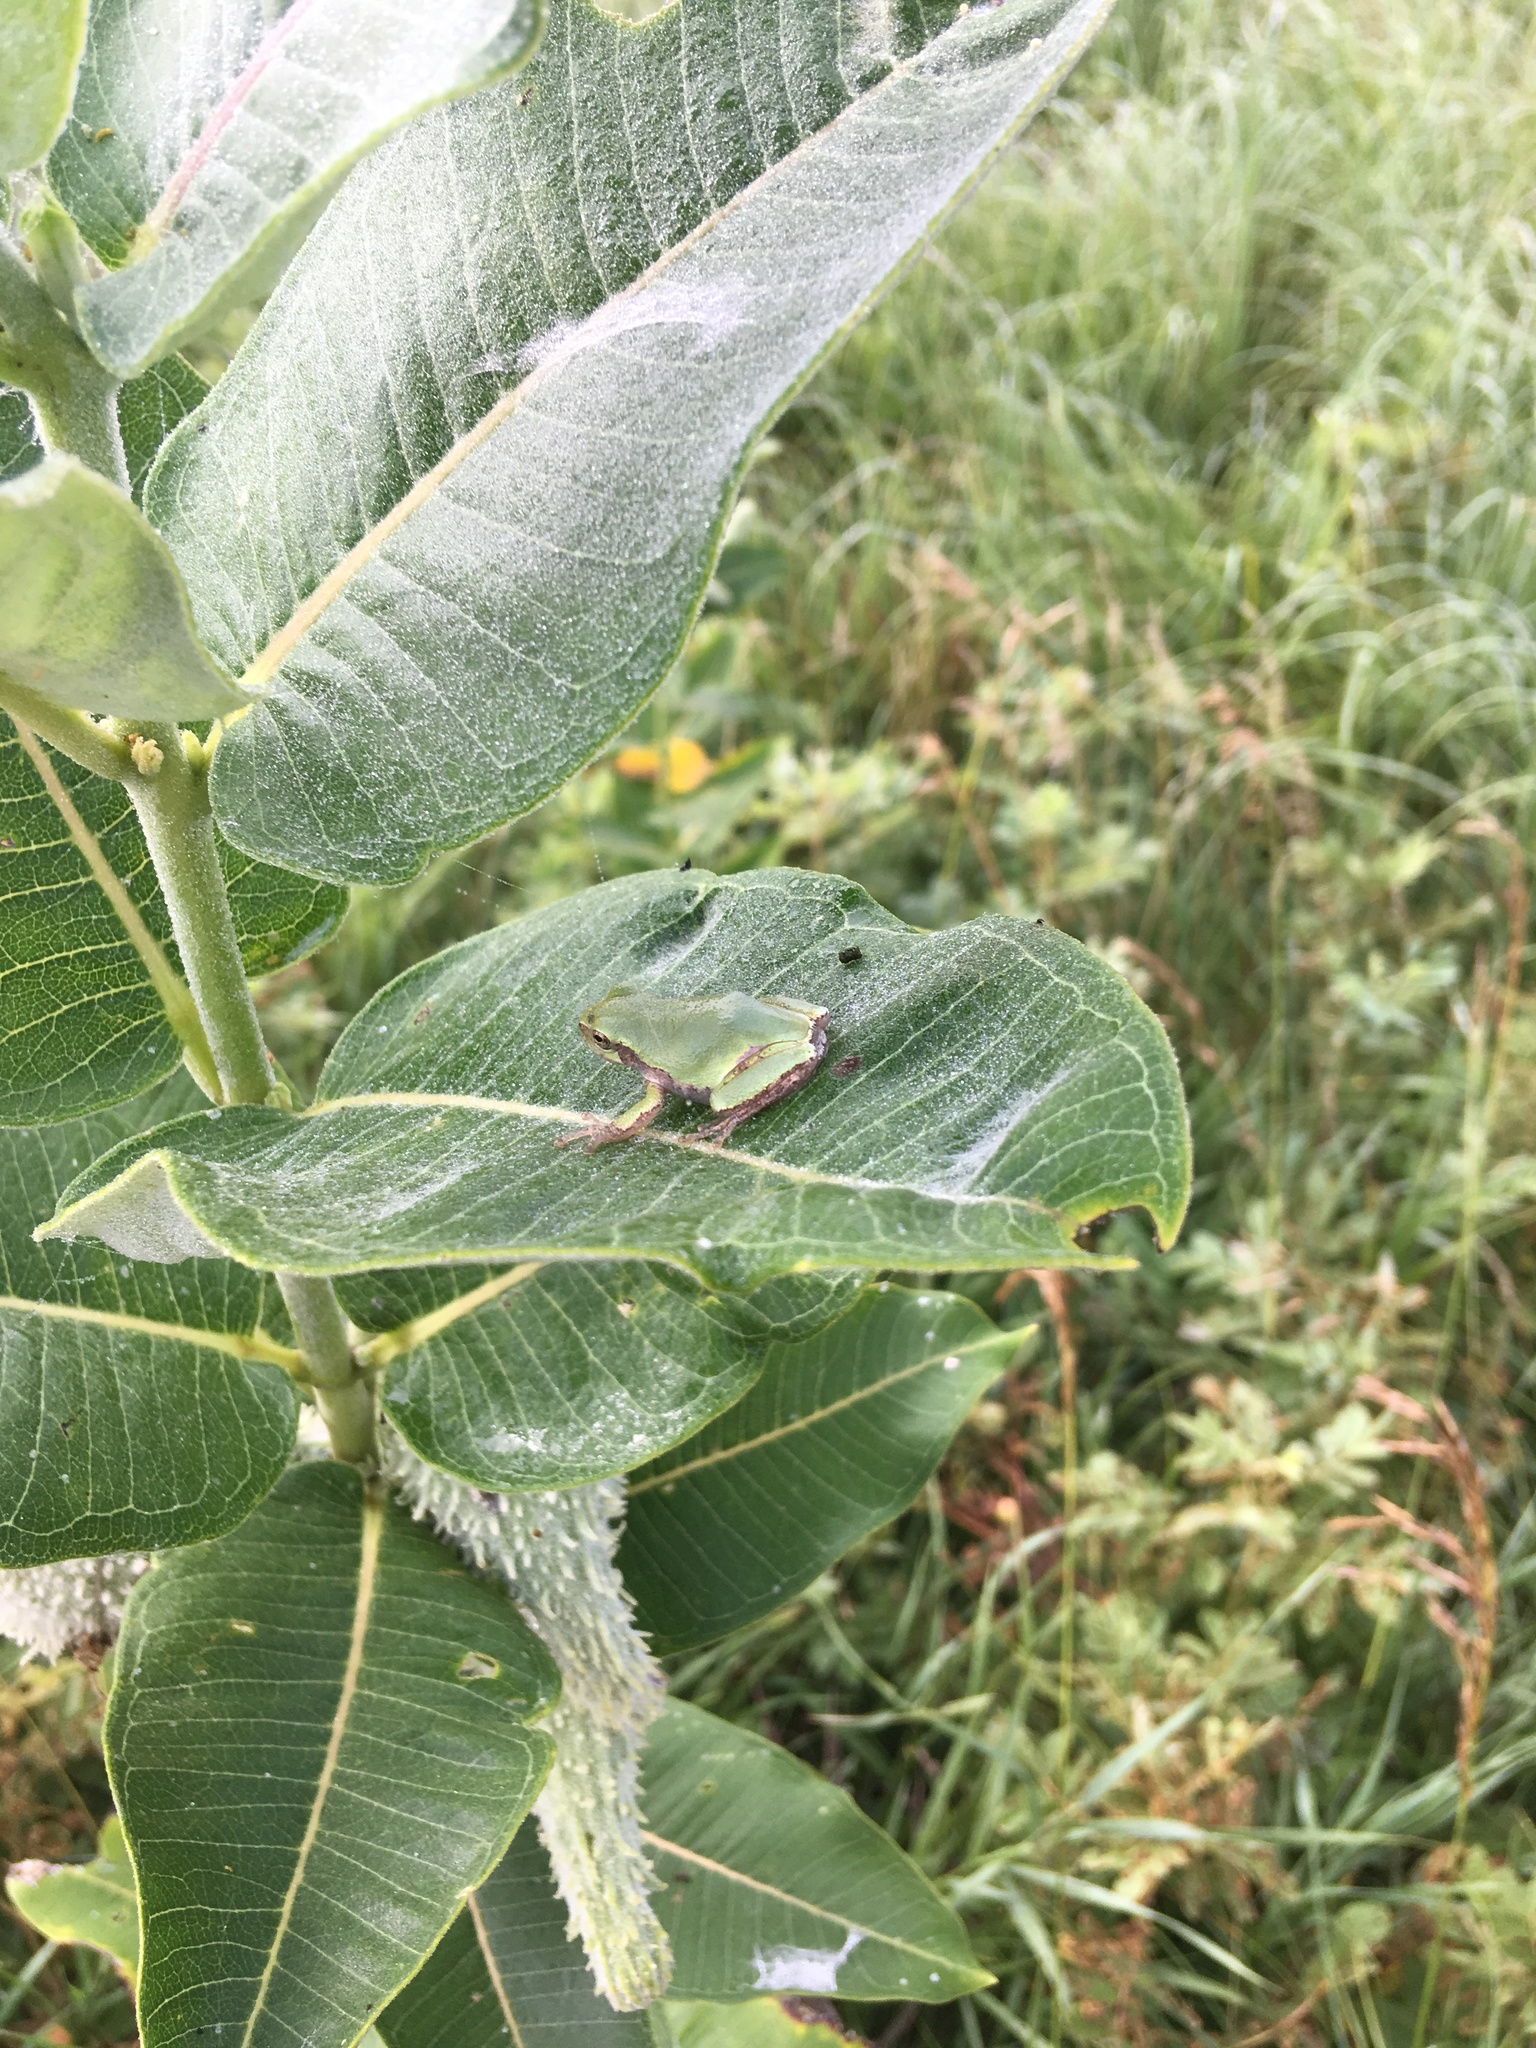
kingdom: Animalia
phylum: Chordata
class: Amphibia
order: Anura
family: Hylidae
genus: Dryophytes
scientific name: Dryophytes chrysoscelis
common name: Cope's gray treefrog
